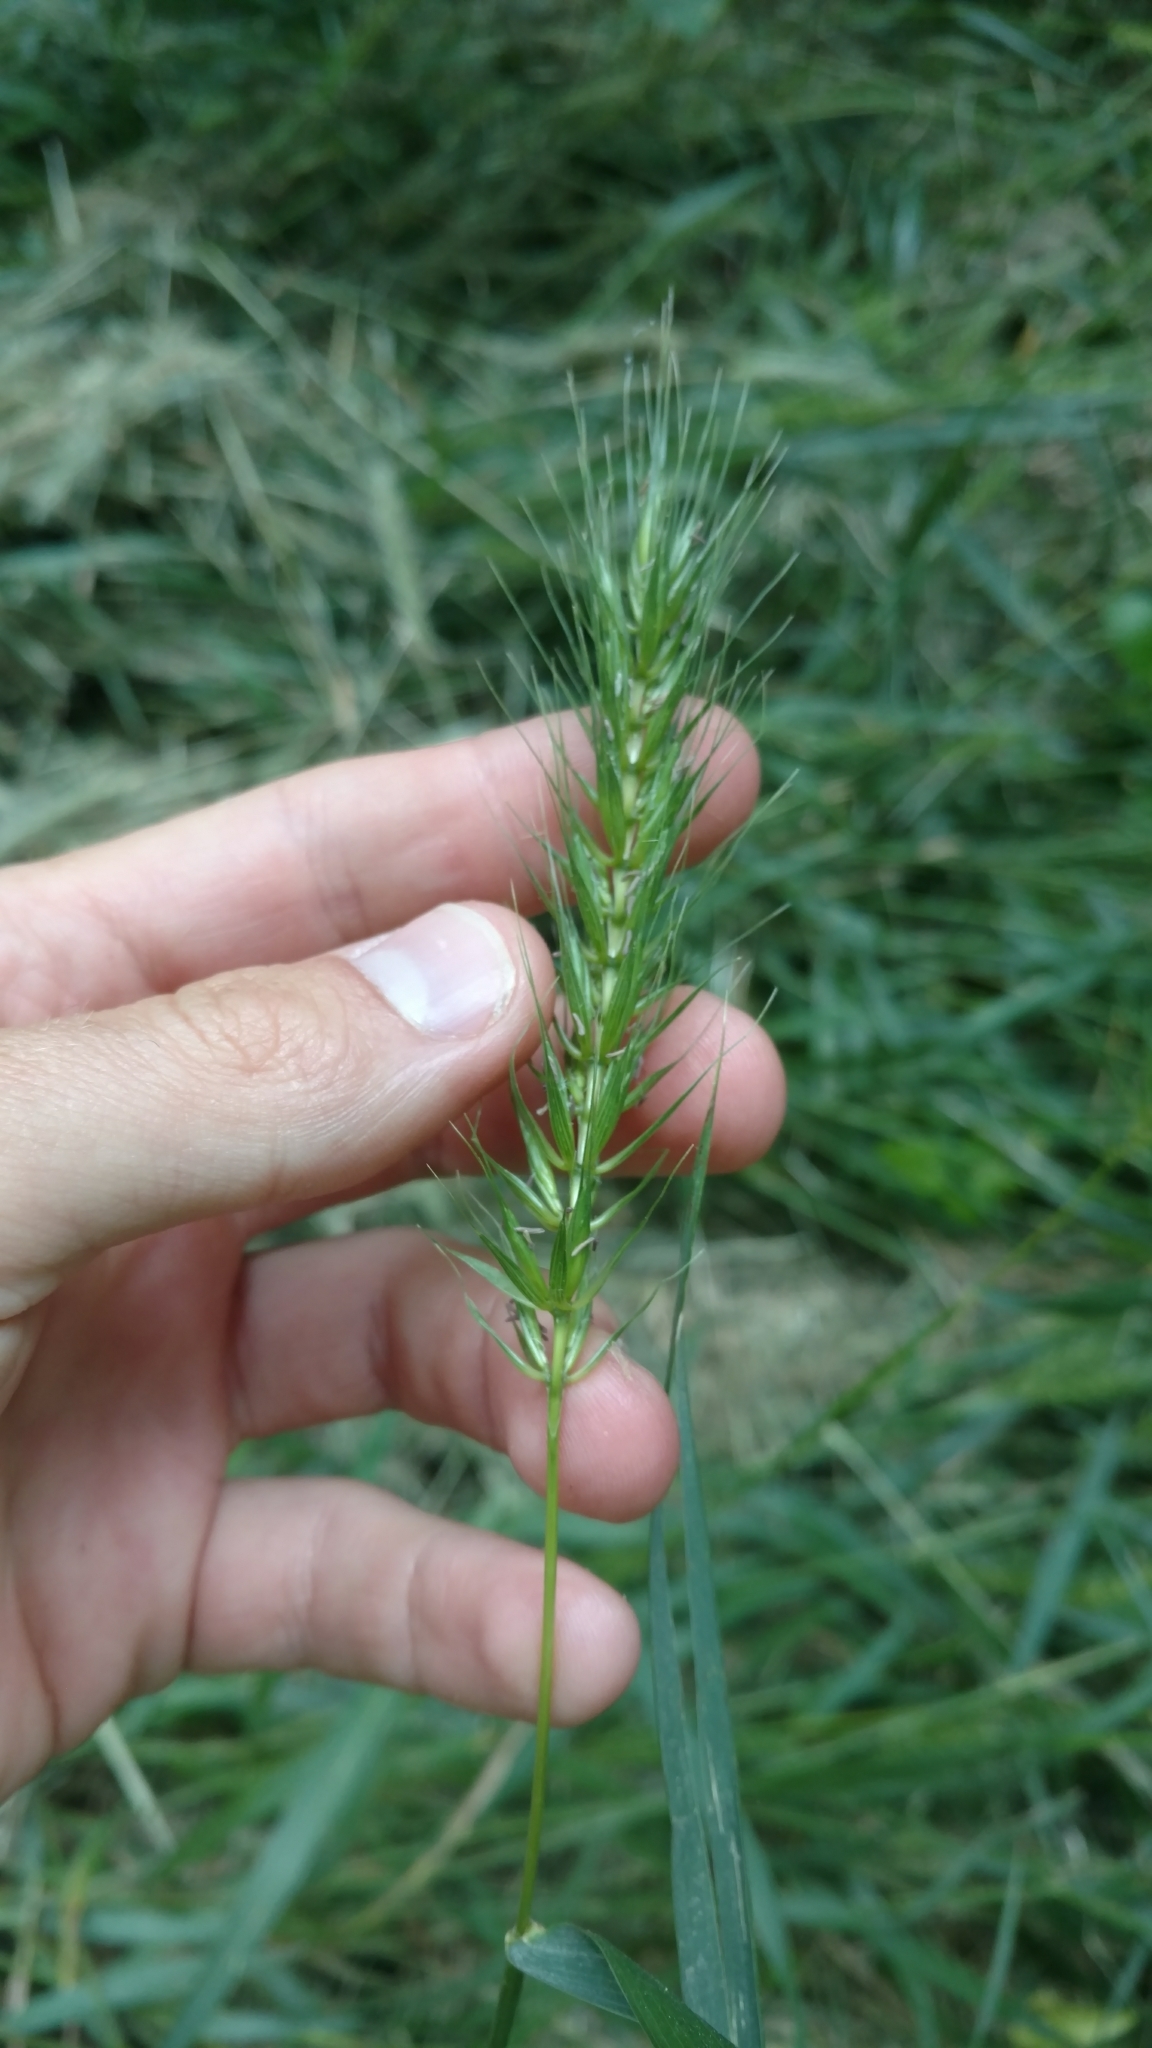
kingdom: Plantae
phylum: Tracheophyta
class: Liliopsida
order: Poales
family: Poaceae
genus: Elymus
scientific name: Elymus virginicus
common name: Common eastern wildrye
